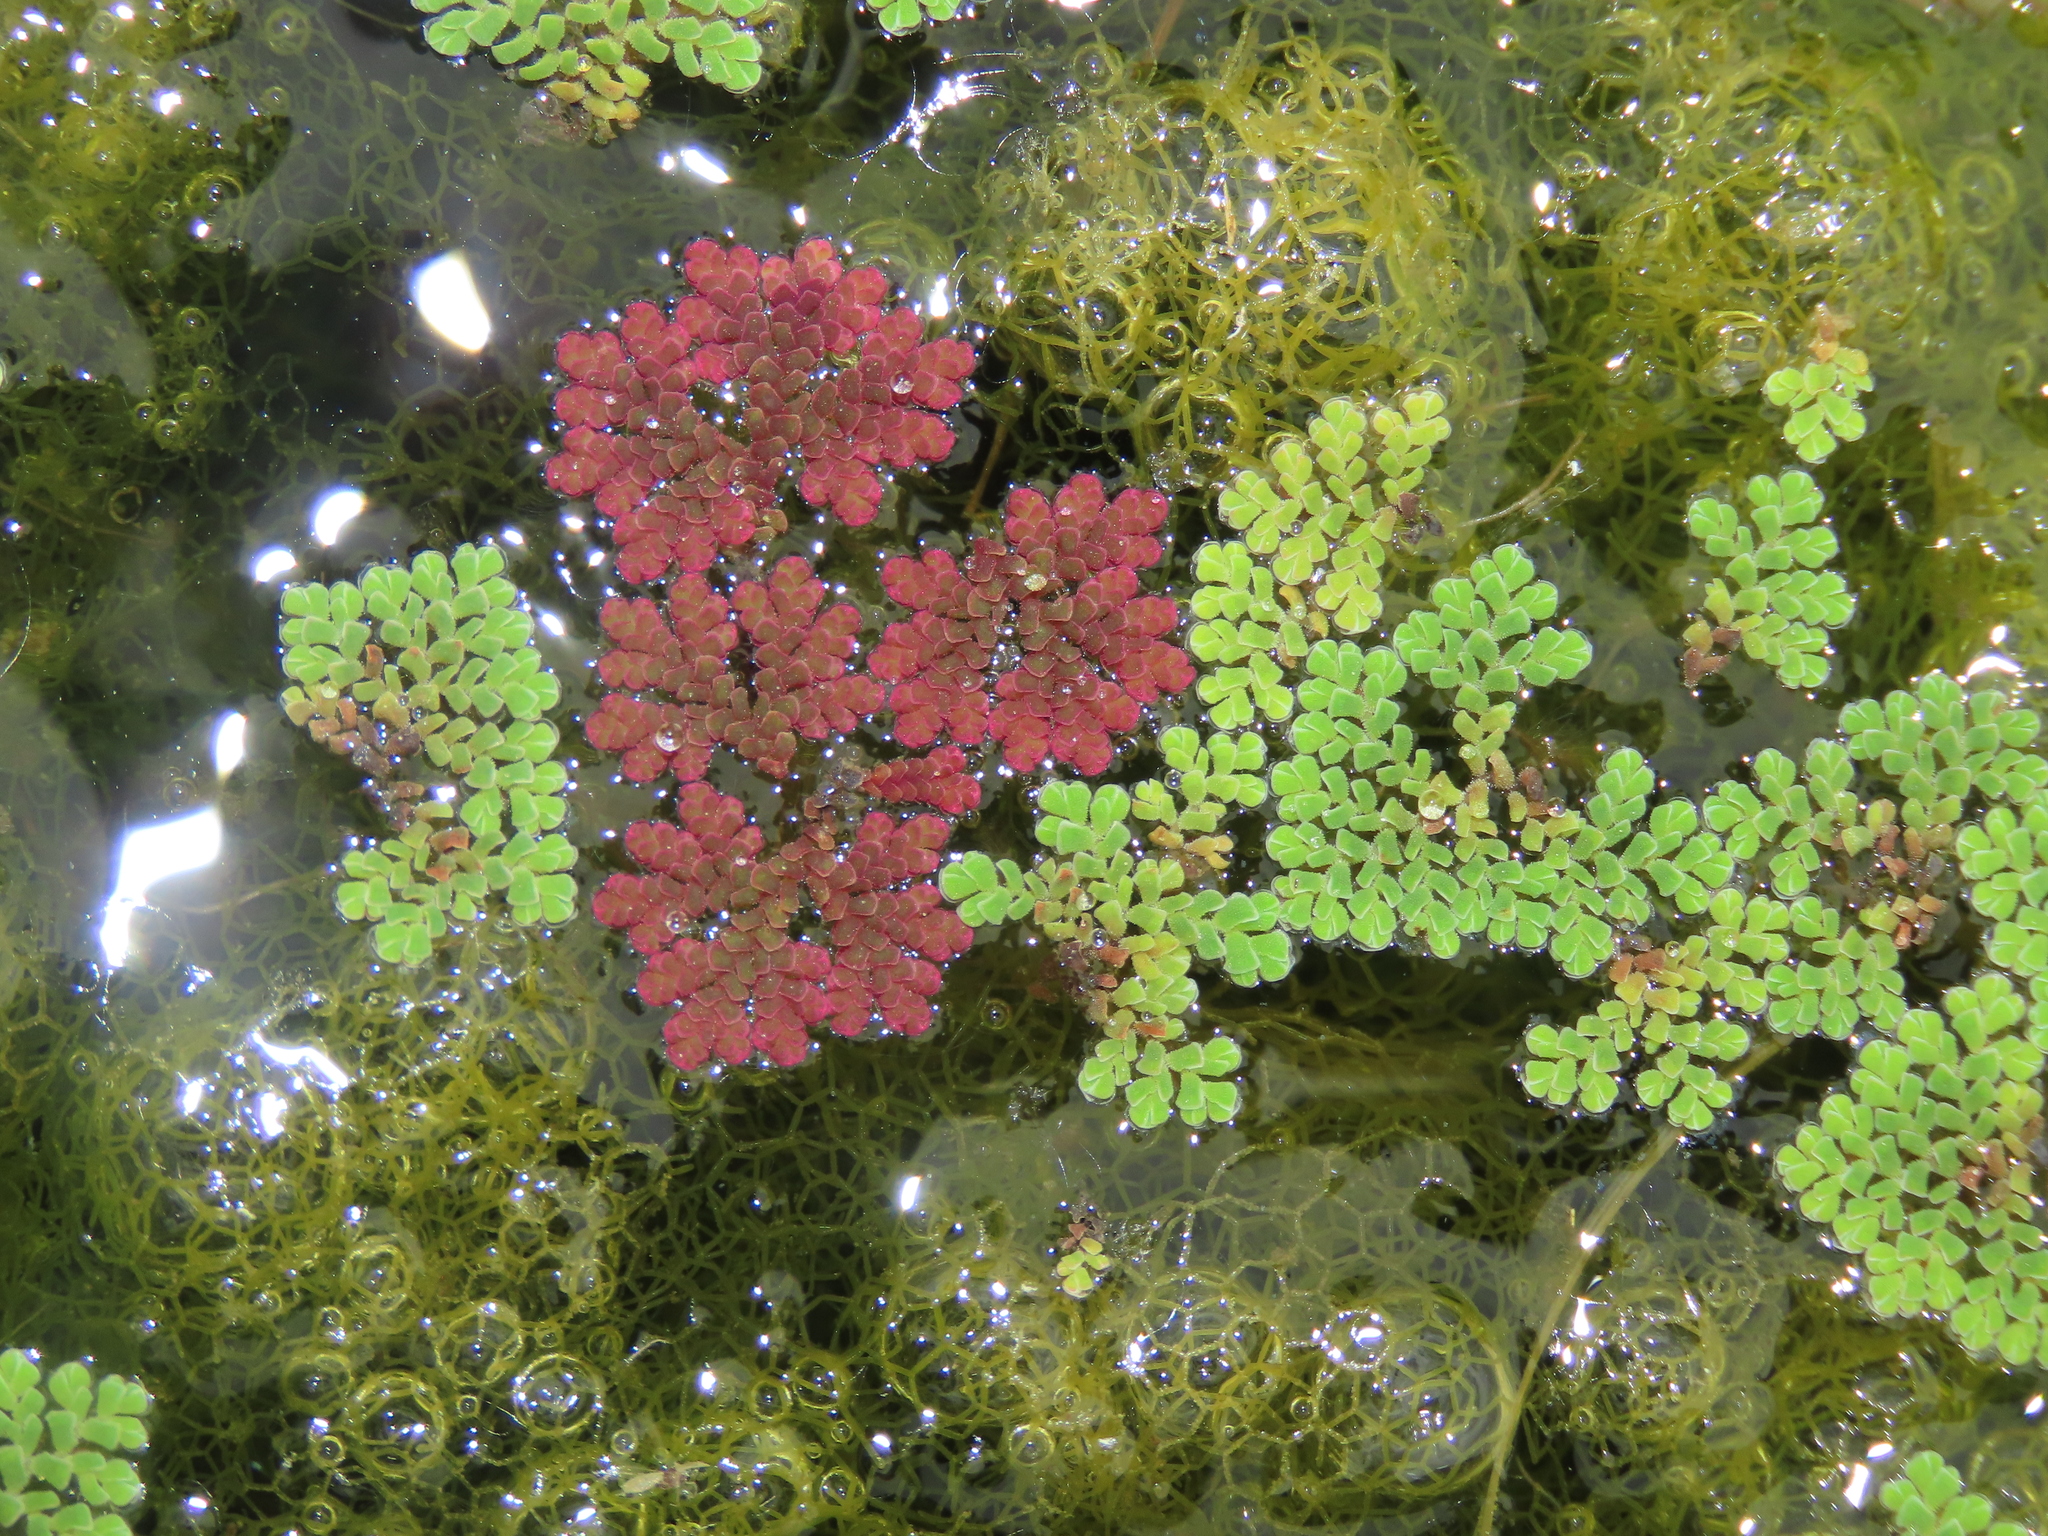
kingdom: Plantae
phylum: Tracheophyta
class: Polypodiopsida
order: Salviniales
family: Salviniaceae
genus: Azolla
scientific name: Azolla caroliniana
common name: Carolina mosquitofern
